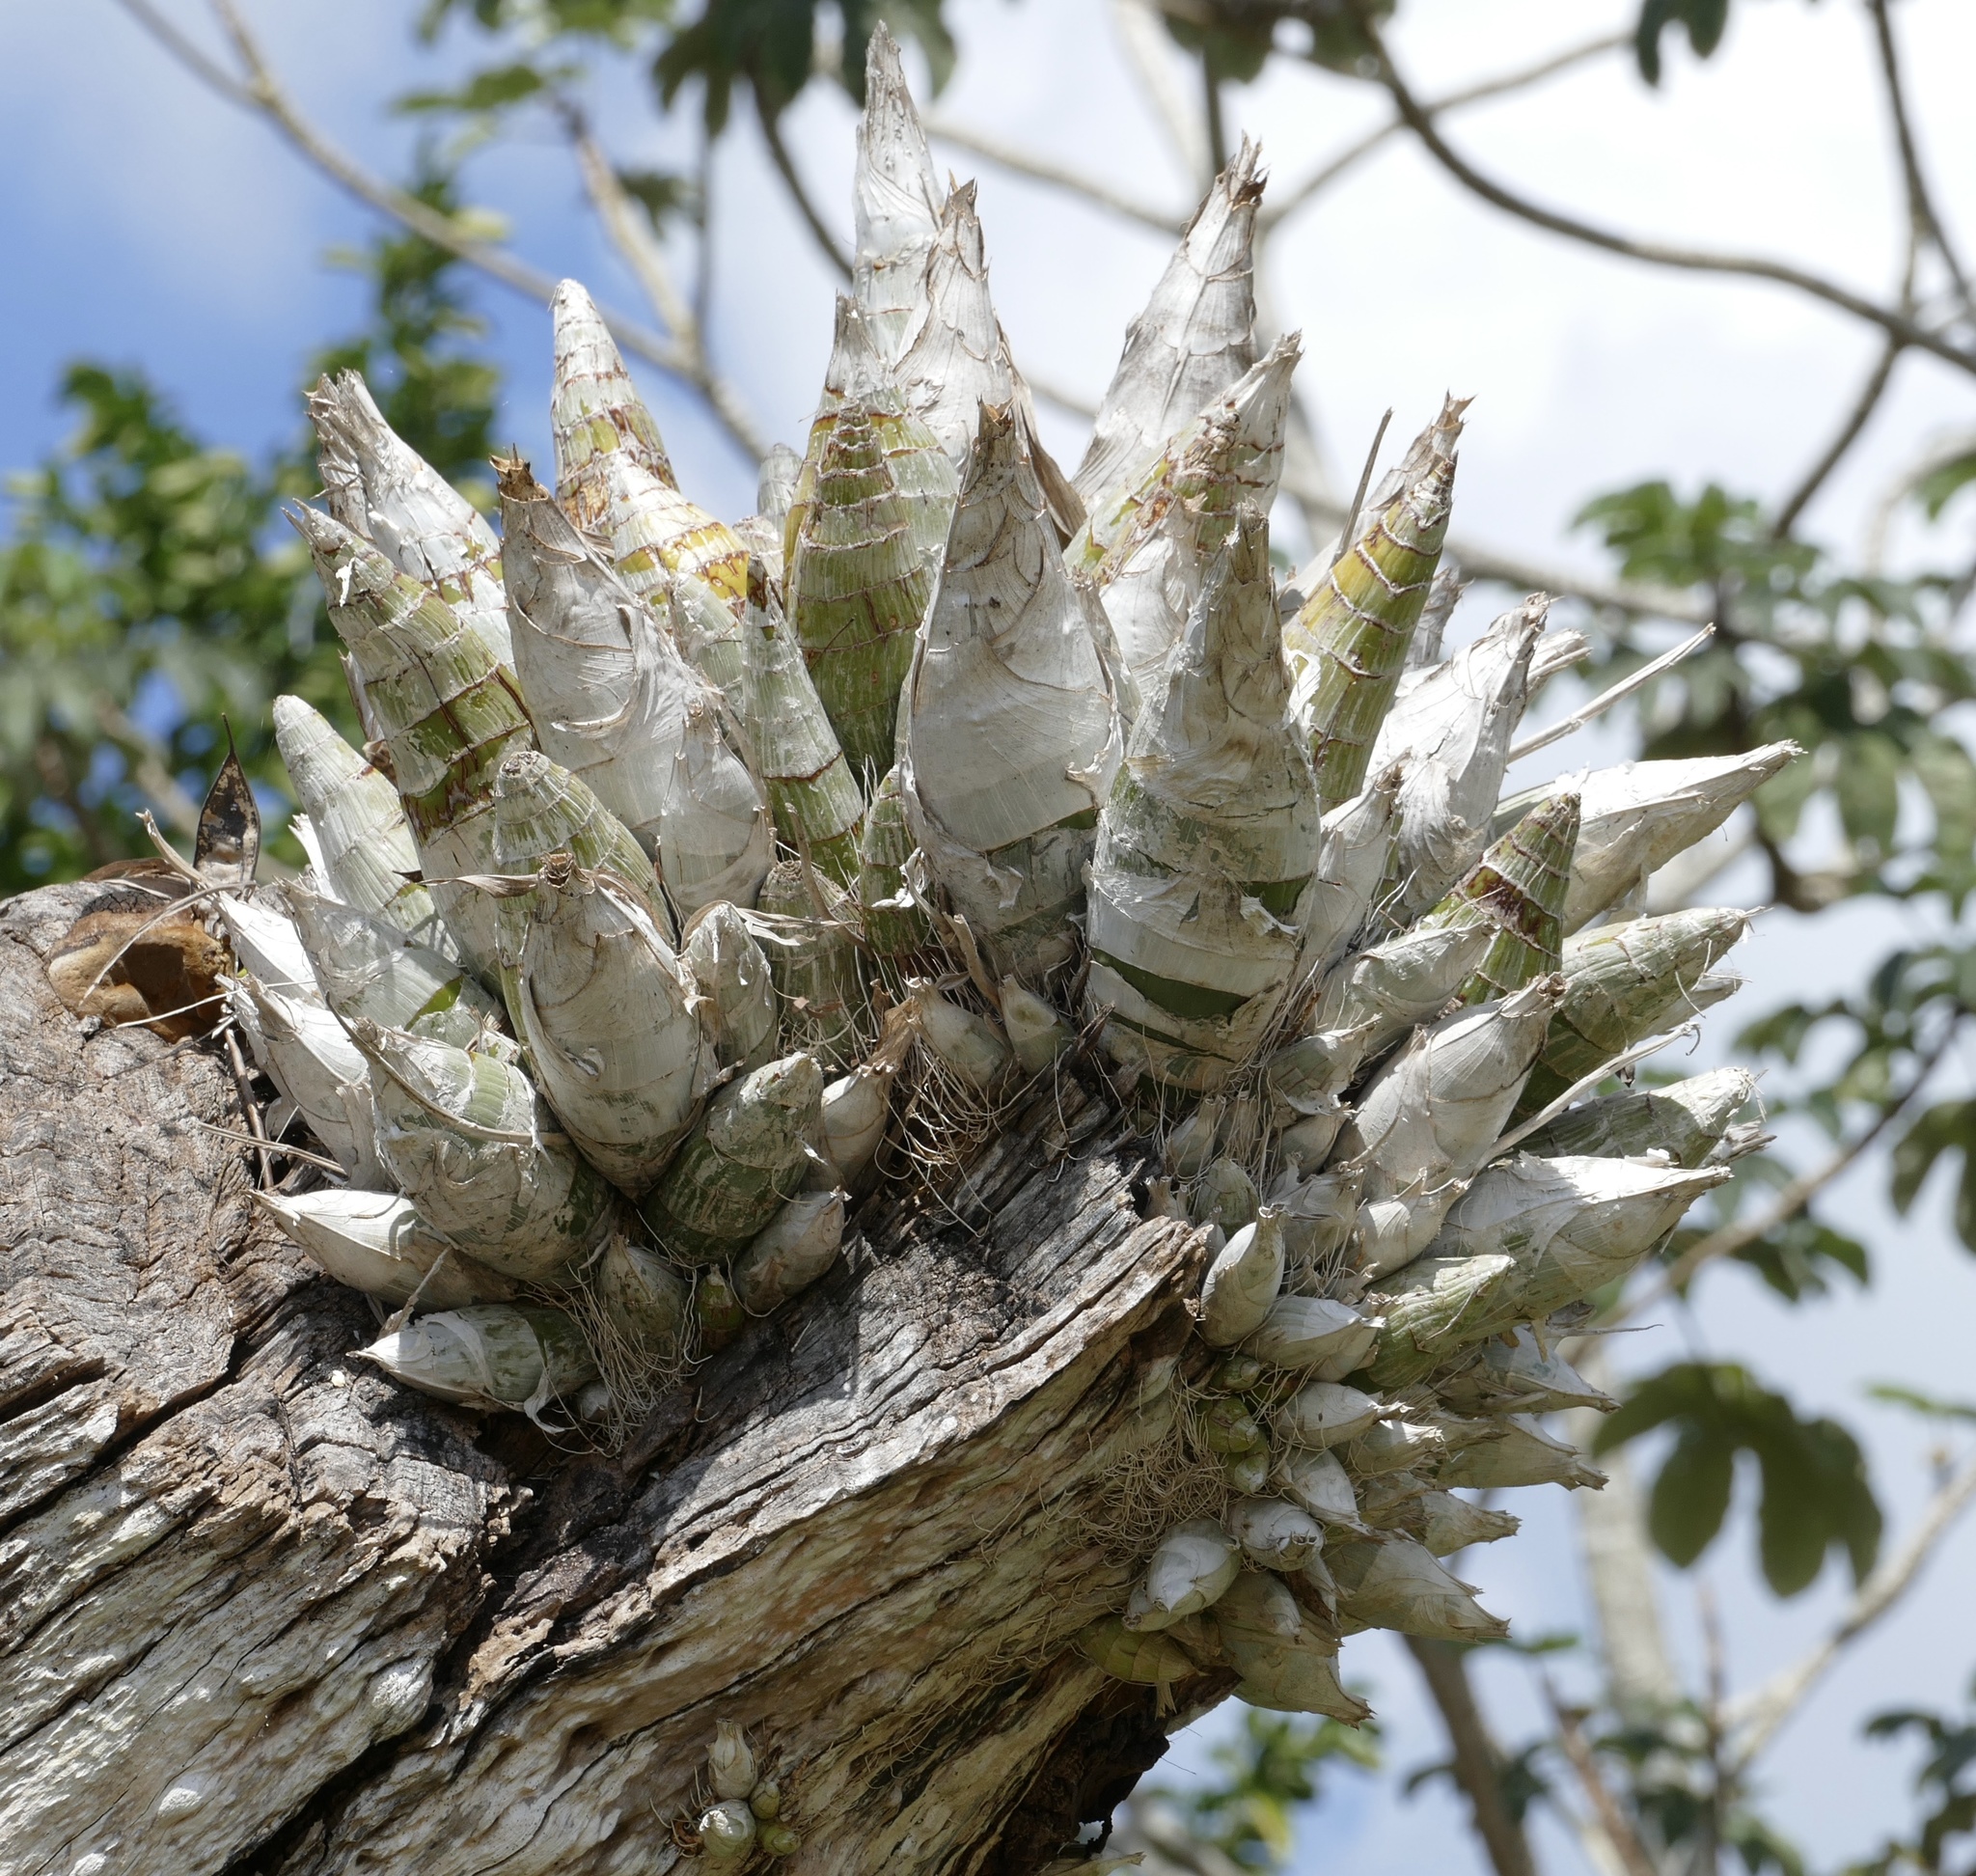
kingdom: Plantae
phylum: Tracheophyta
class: Liliopsida
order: Asparagales
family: Orchidaceae
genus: Catasetum
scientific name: Catasetum integerrimum
